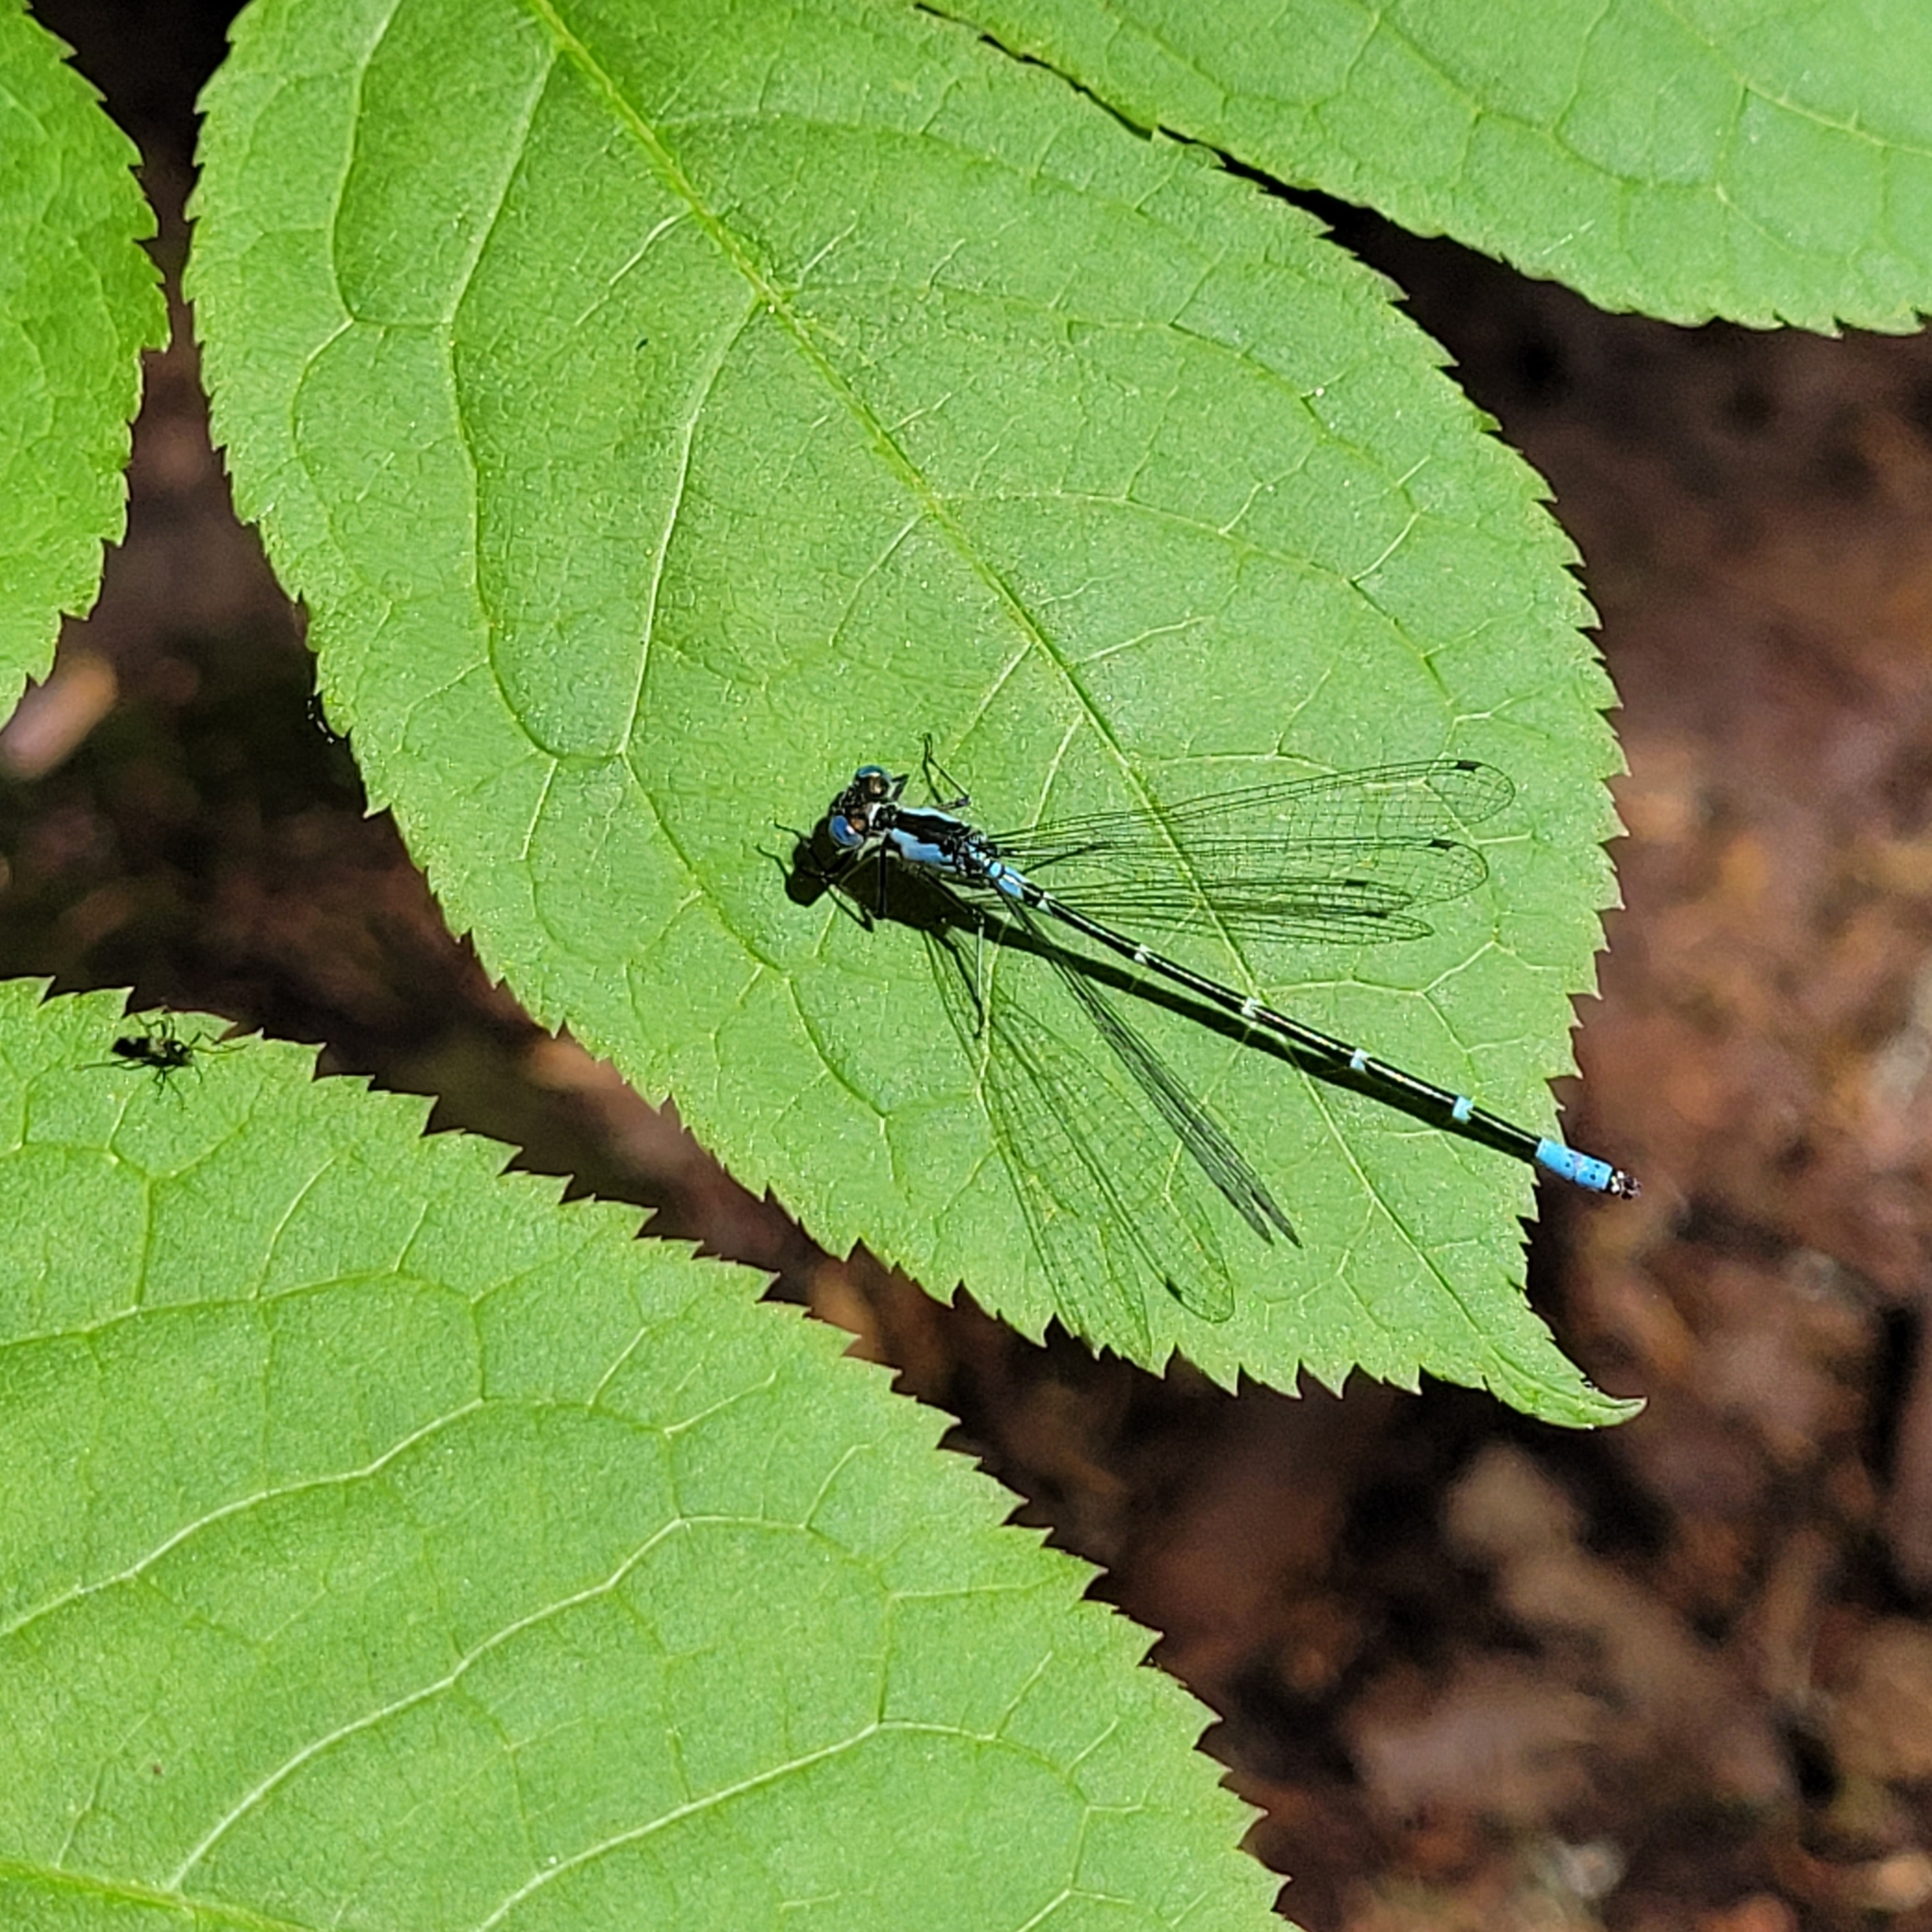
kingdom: Animalia
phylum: Arthropoda
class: Insecta
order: Odonata
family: Coenagrionidae
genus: Chromagrion
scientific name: Chromagrion conditum
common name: Aurora damsel
